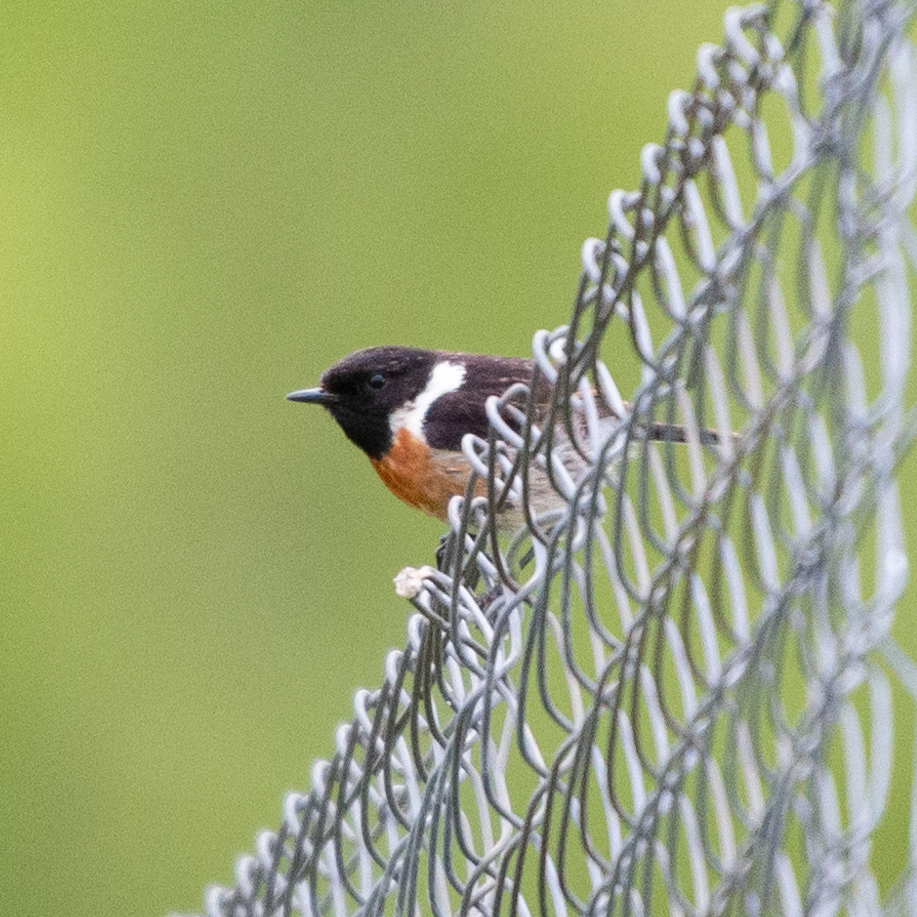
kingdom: Animalia
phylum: Chordata
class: Aves
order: Passeriformes
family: Muscicapidae
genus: Saxicola
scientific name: Saxicola rubicola
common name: European stonechat
